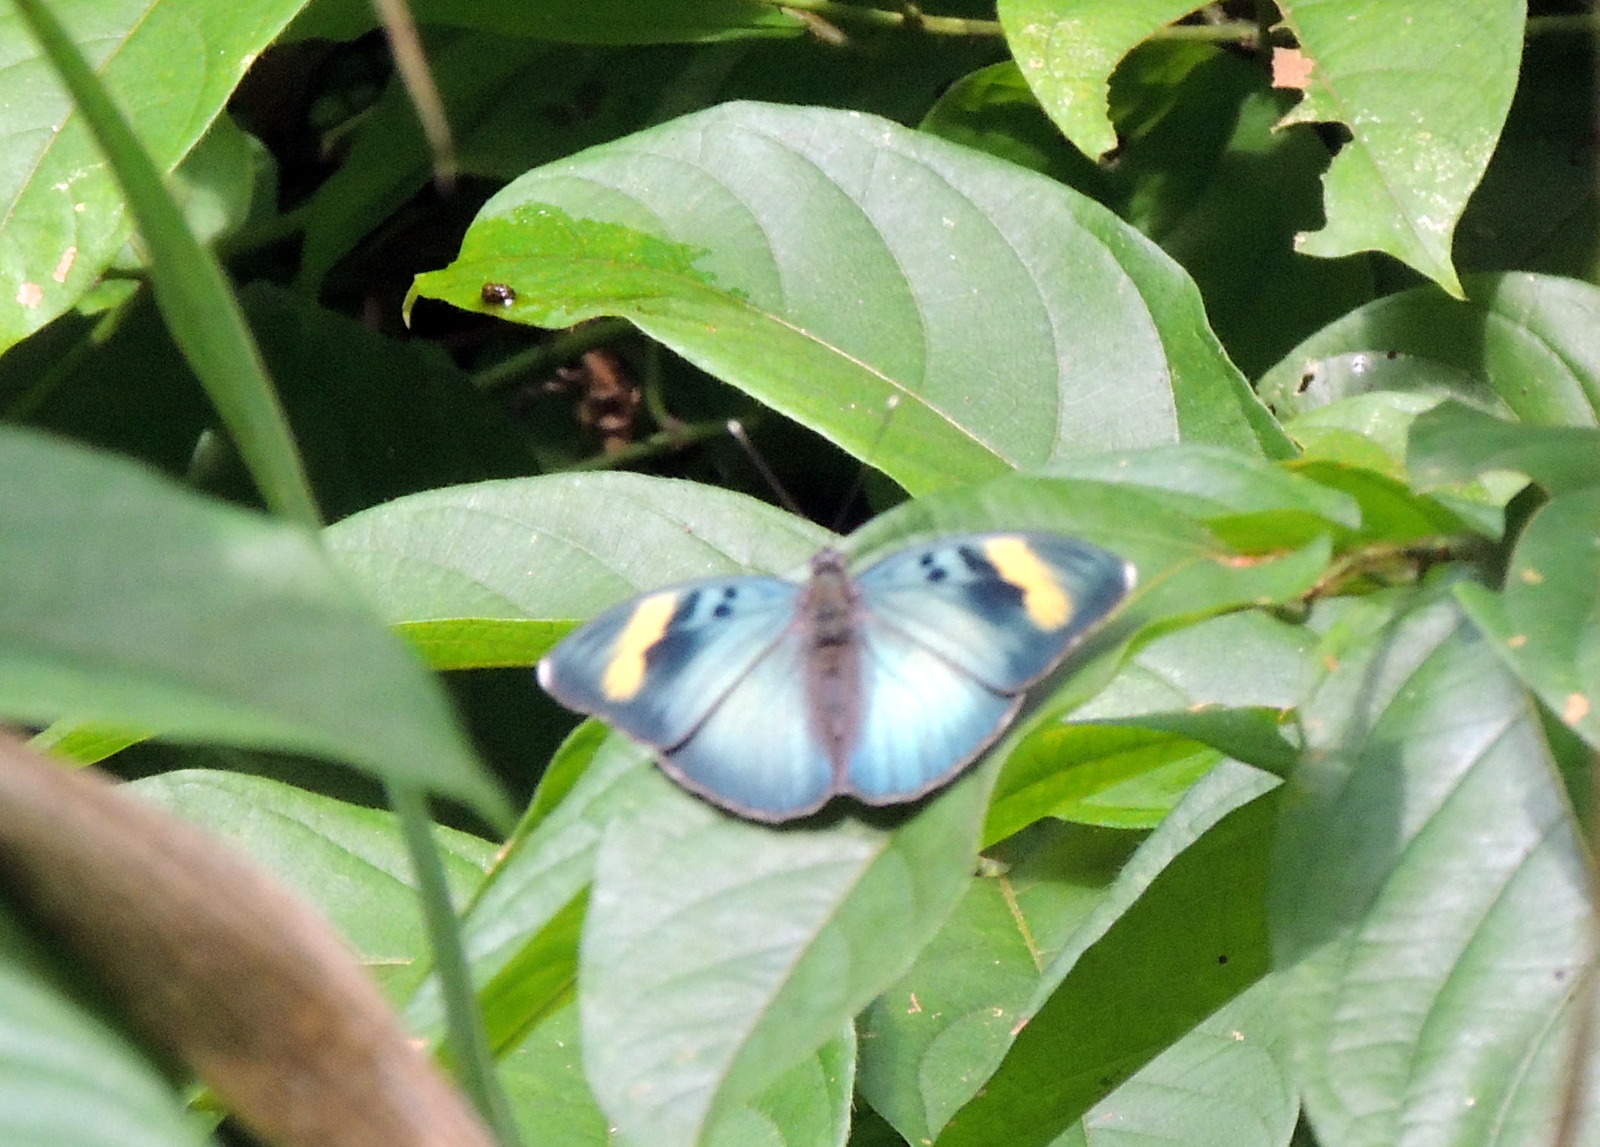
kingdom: Animalia
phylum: Arthropoda
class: Insecta
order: Lepidoptera
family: Nymphalidae
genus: Euphaedra
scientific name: Euphaedra medon
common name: Widespread forester
